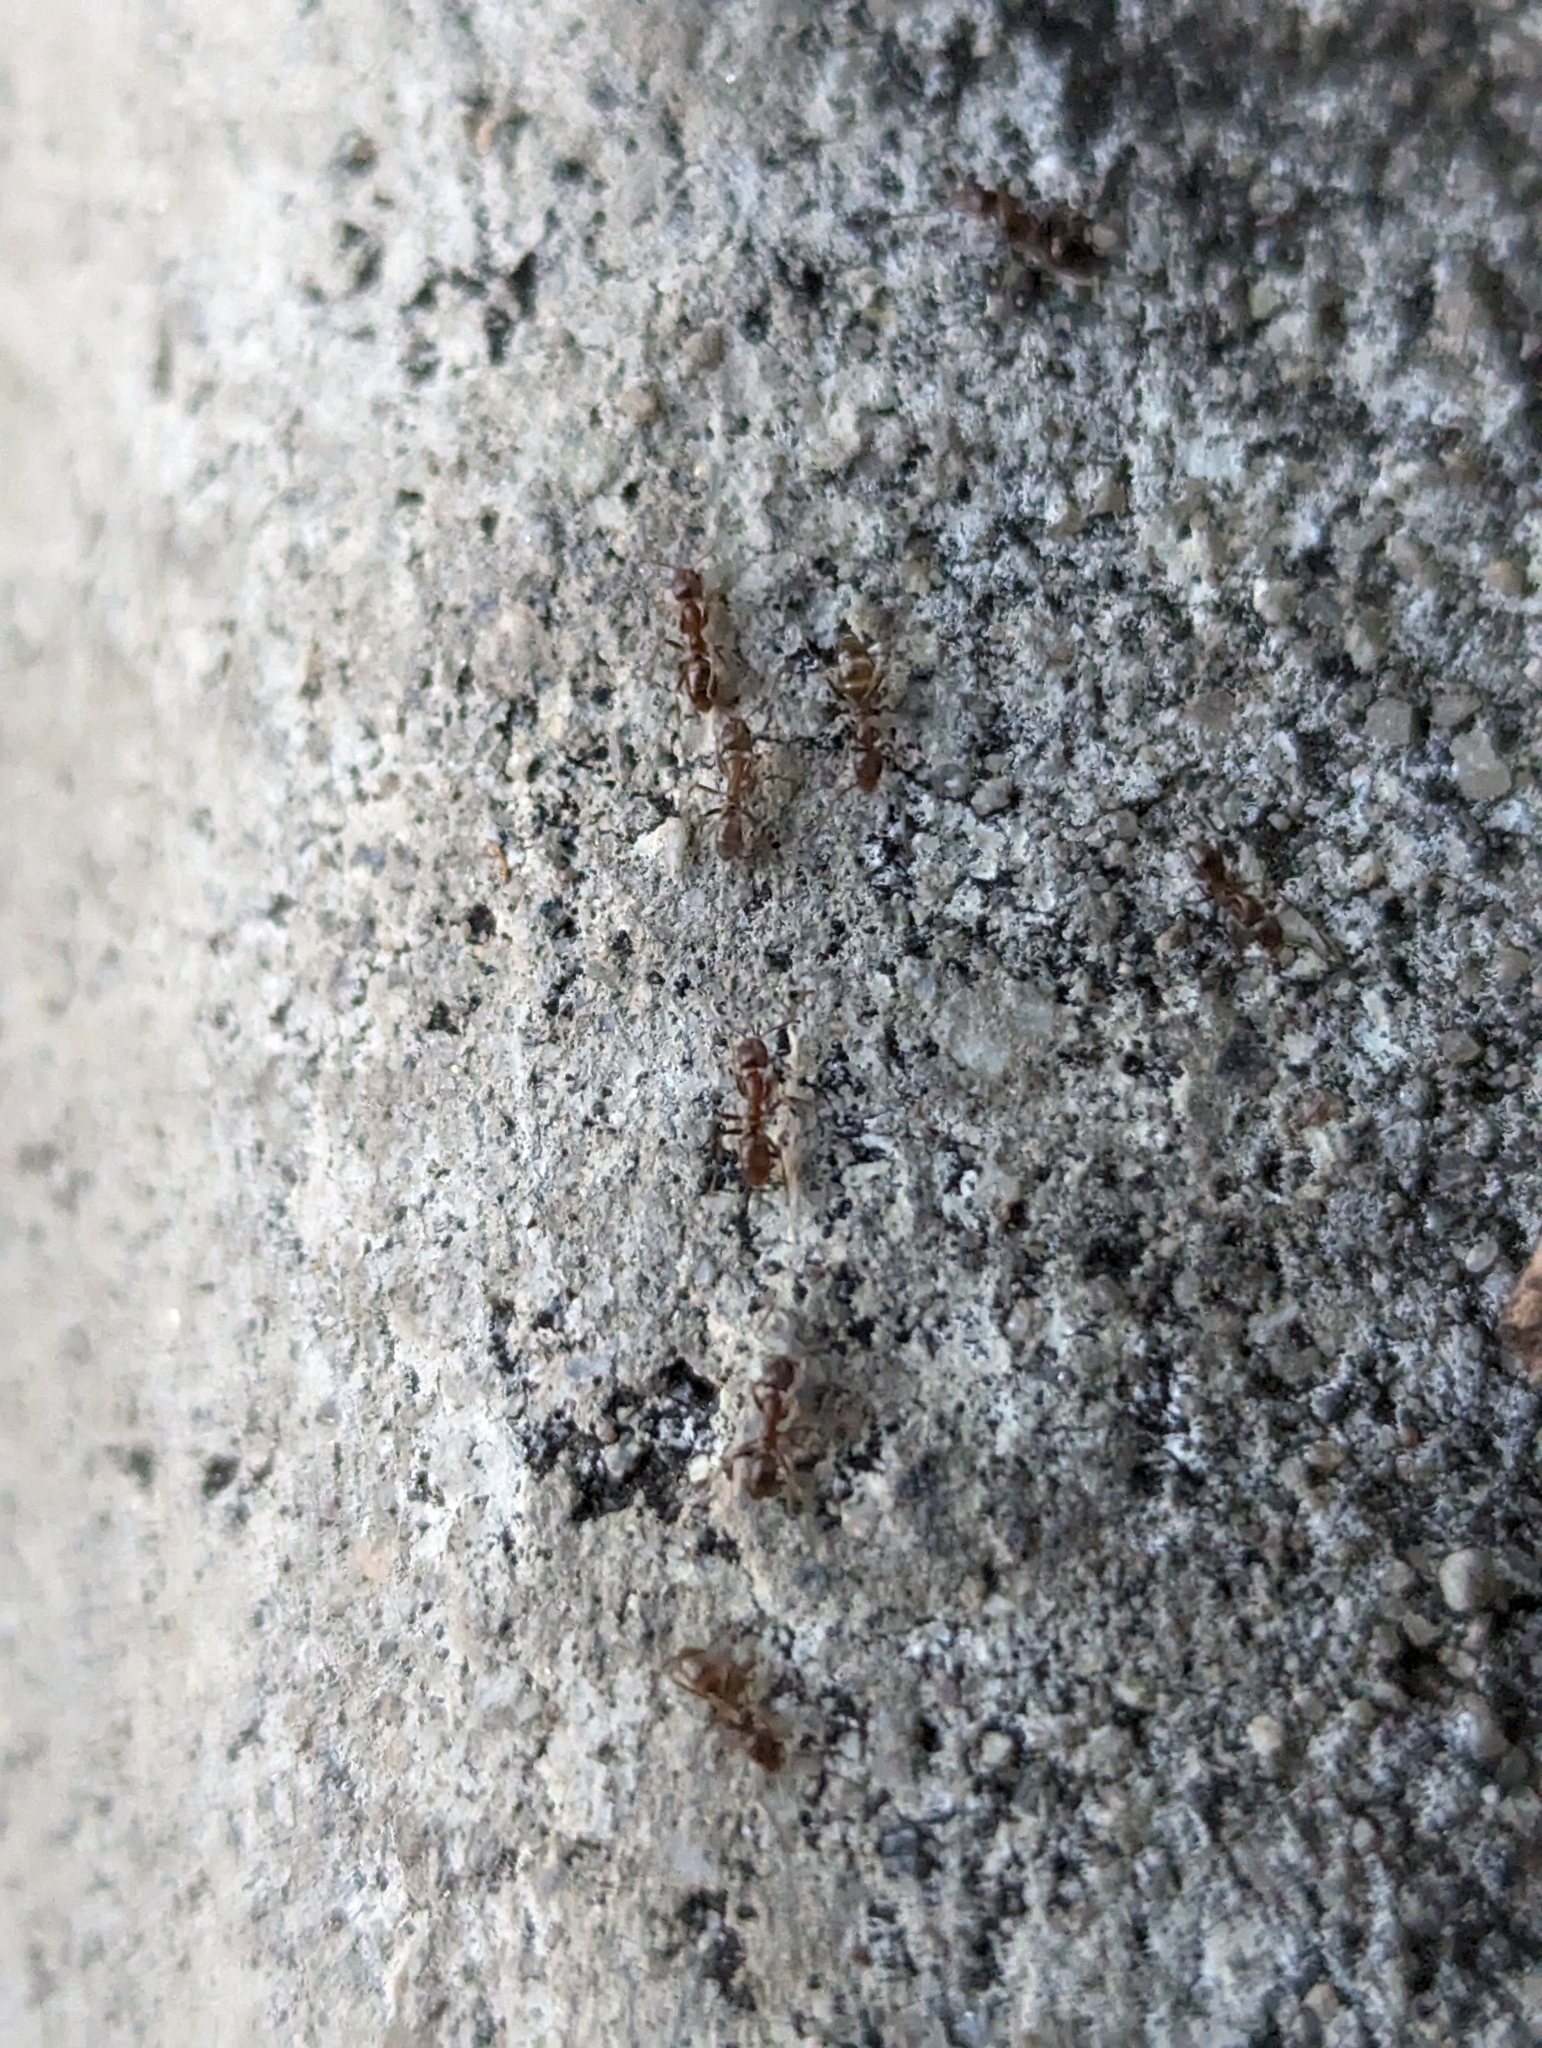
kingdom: Animalia
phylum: Arthropoda
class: Insecta
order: Hymenoptera
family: Formicidae
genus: Linepithema
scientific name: Linepithema humile
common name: Argentine ant
